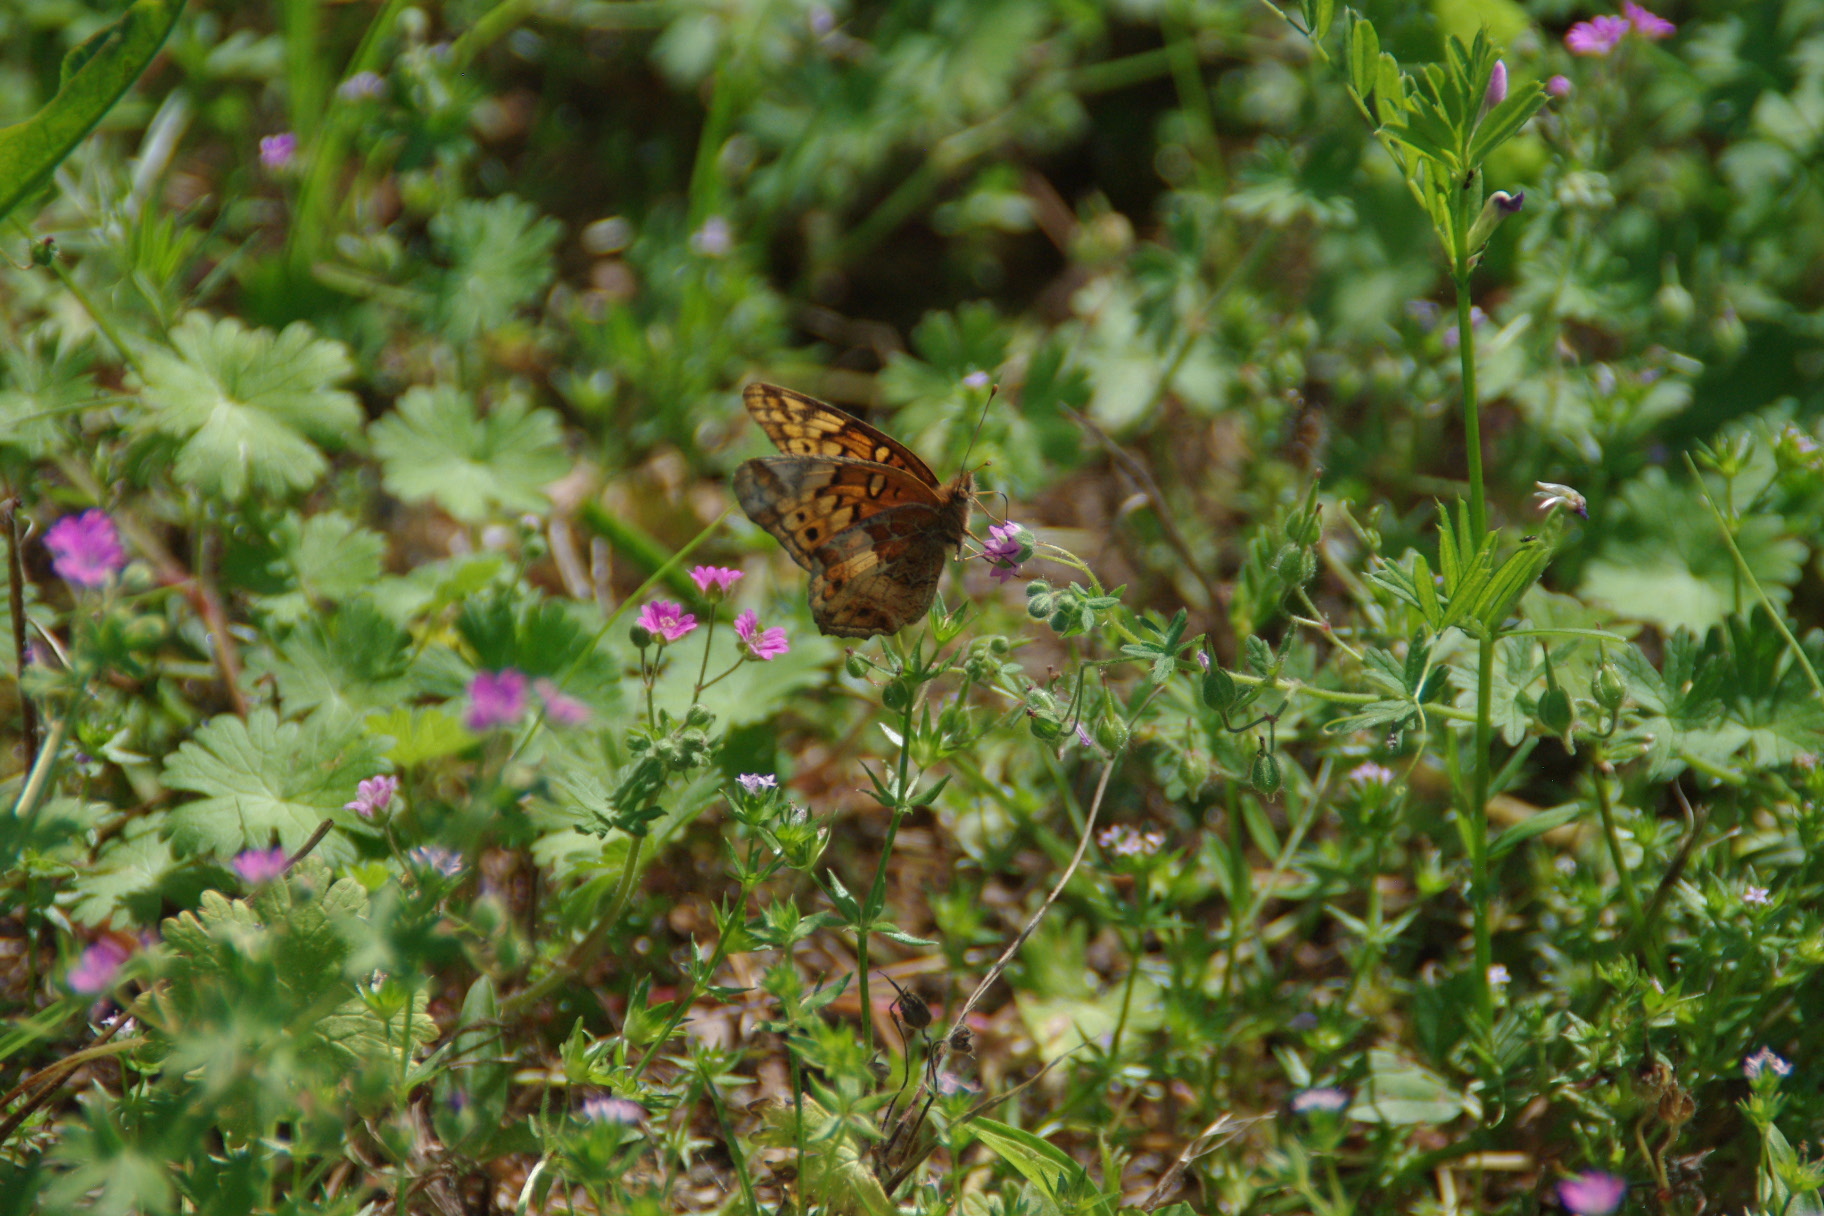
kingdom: Animalia
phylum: Arthropoda
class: Insecta
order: Lepidoptera
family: Nymphalidae
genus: Euptoieta
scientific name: Euptoieta claudia
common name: Variegated fritillary
